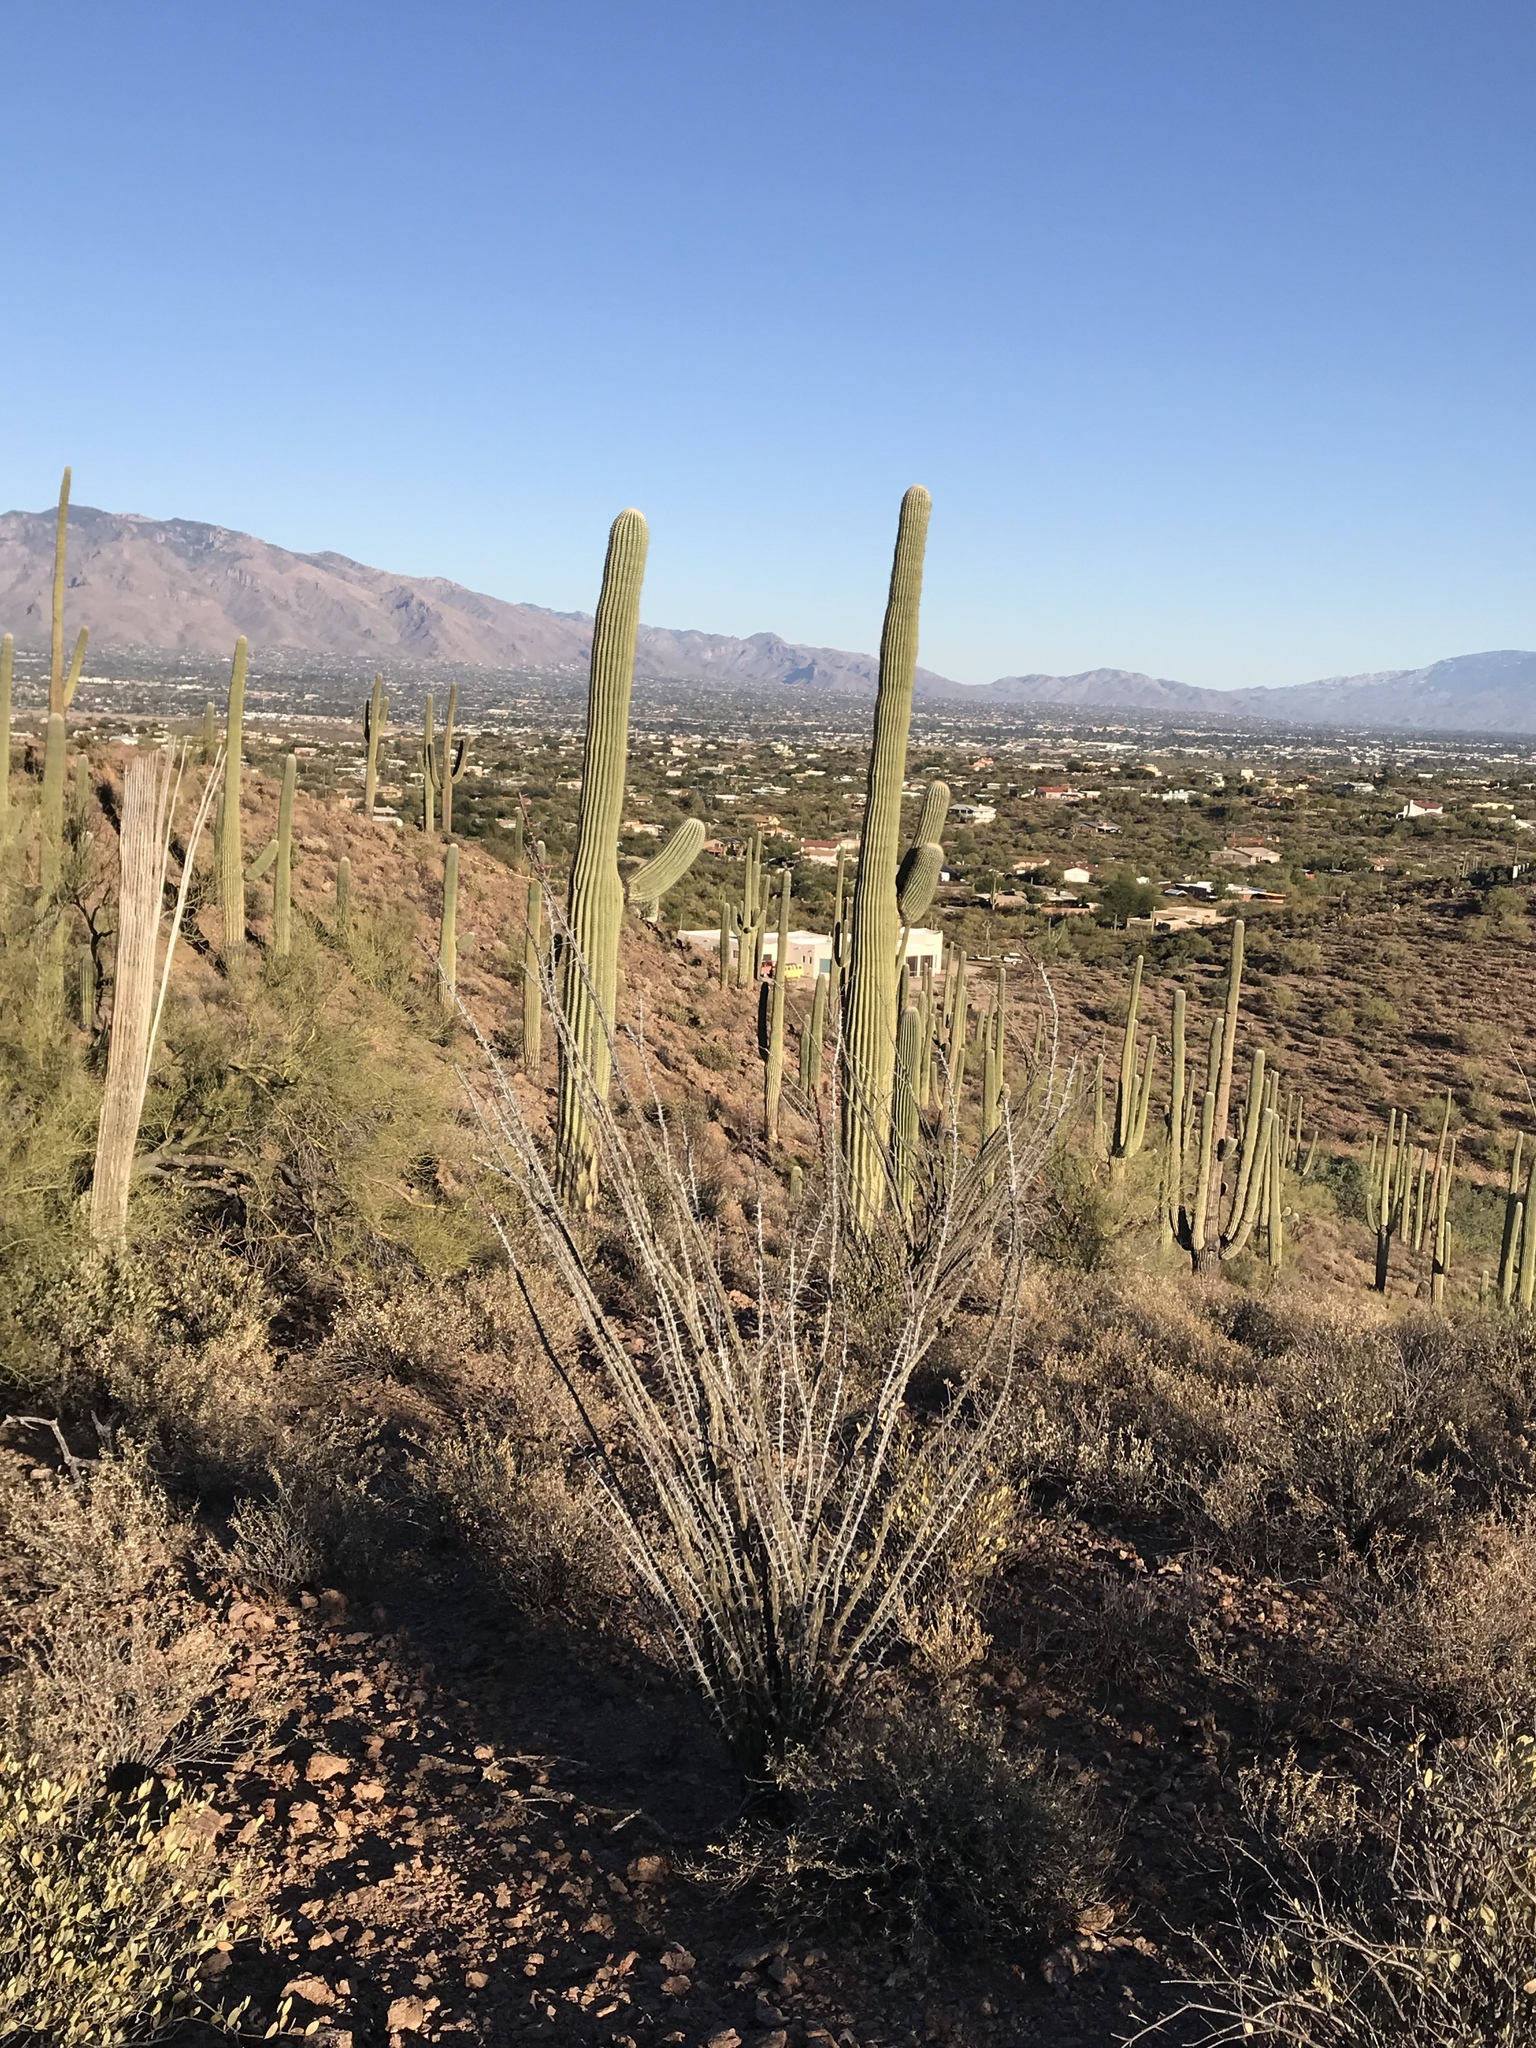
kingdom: Plantae
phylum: Tracheophyta
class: Magnoliopsida
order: Ericales
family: Fouquieriaceae
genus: Fouquieria
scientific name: Fouquieria splendens
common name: Vine-cactus
